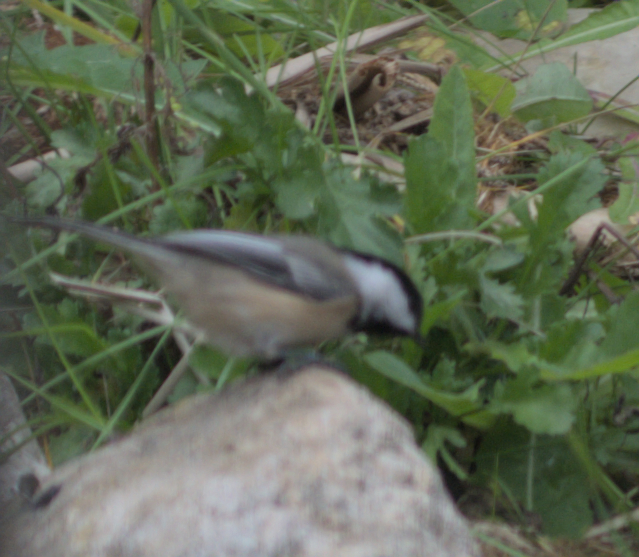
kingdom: Animalia
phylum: Chordata
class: Aves
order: Passeriformes
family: Paridae
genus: Poecile
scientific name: Poecile atricapillus
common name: Black-capped chickadee
